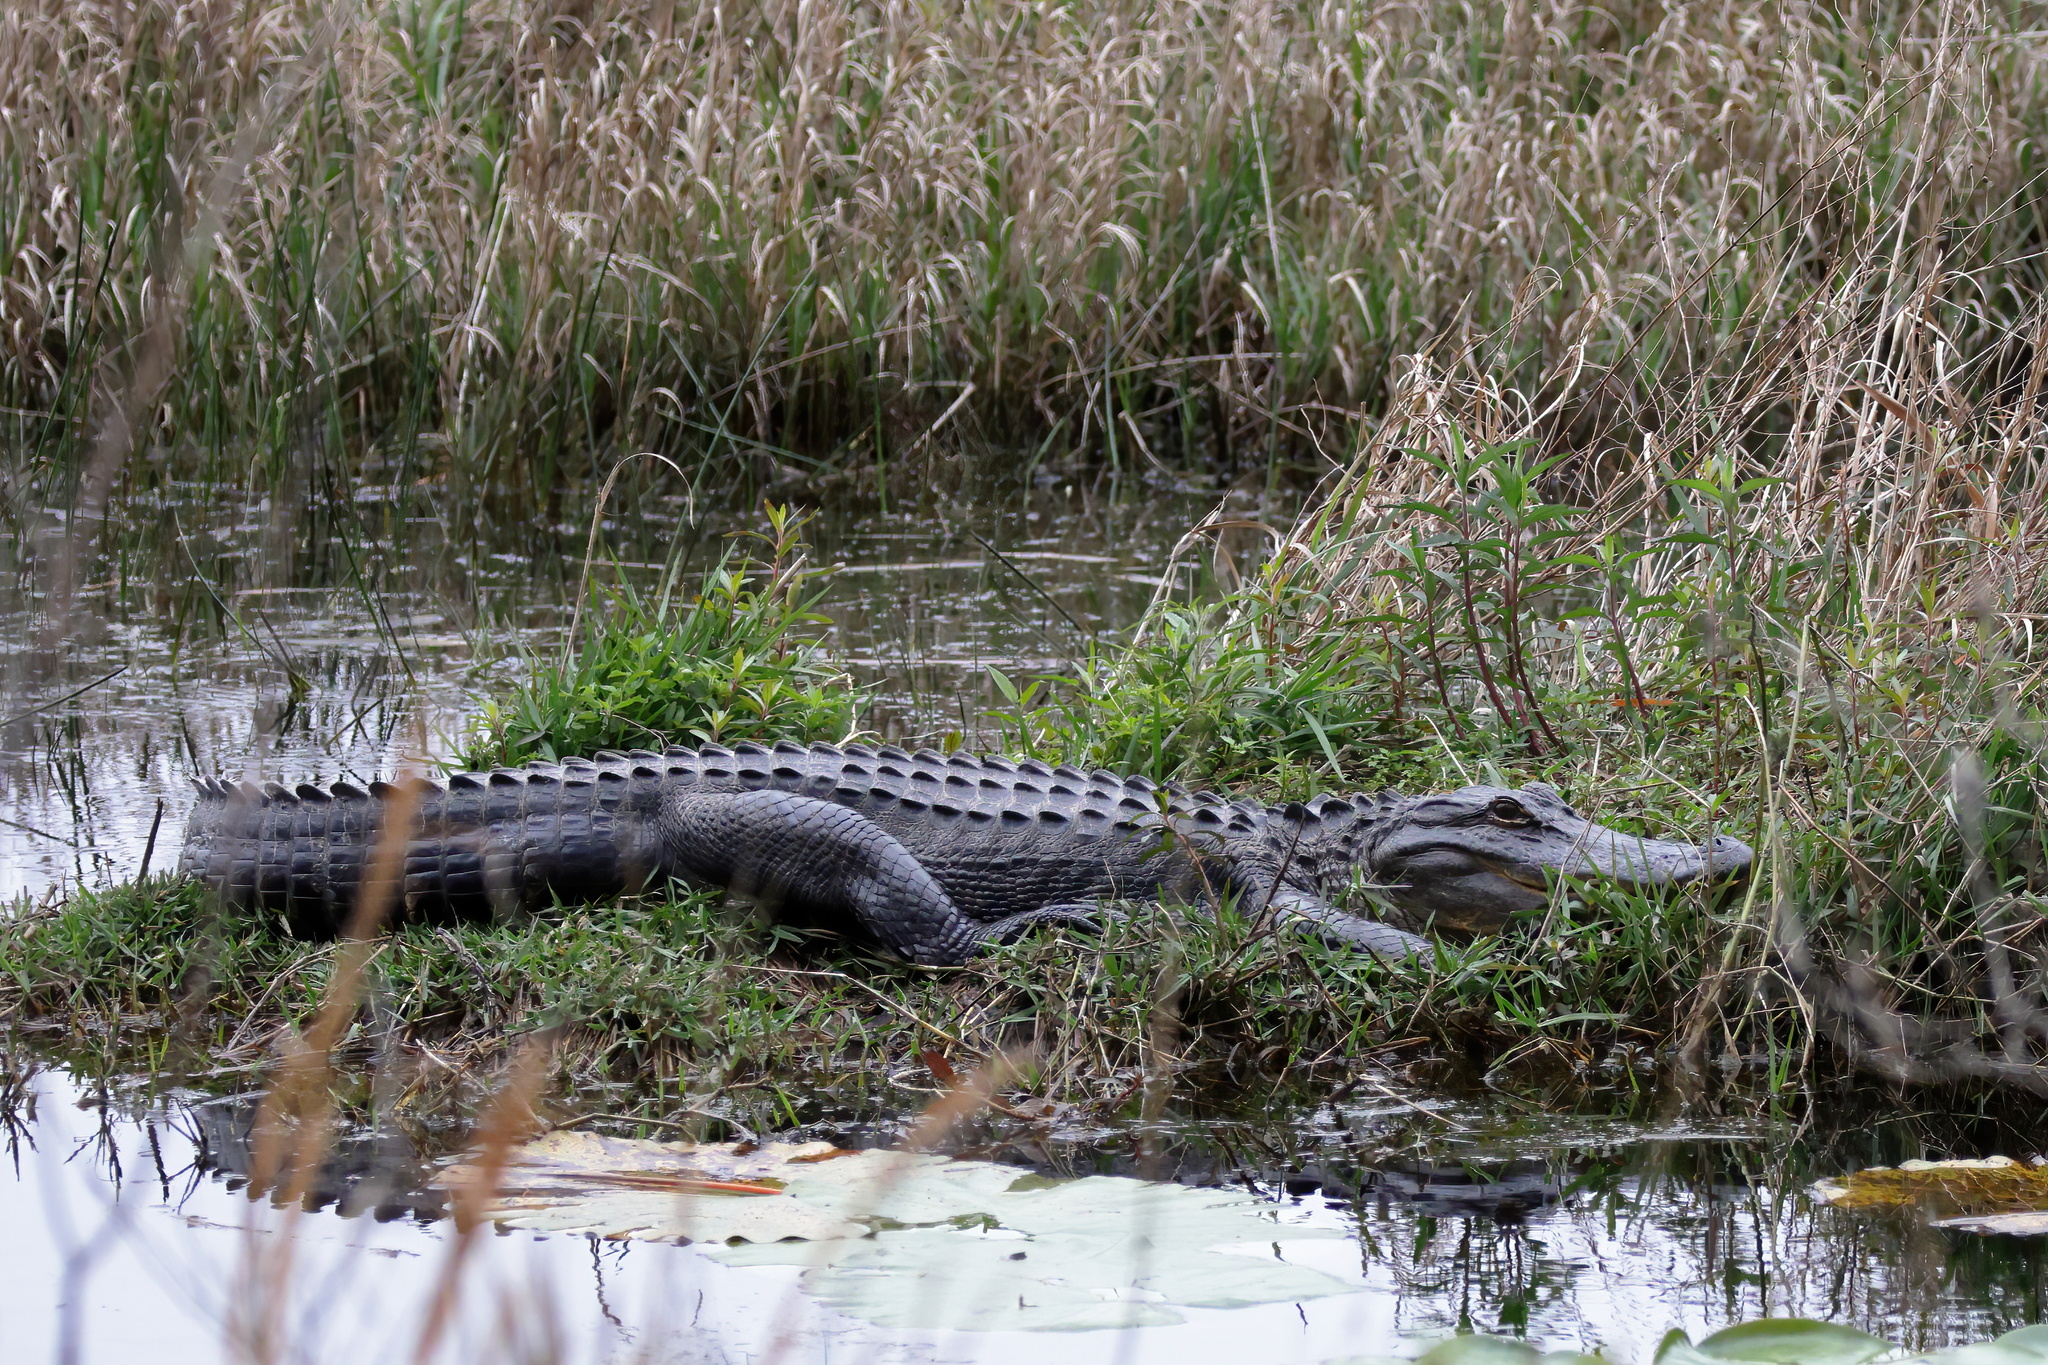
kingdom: Animalia
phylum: Chordata
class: Crocodylia
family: Alligatoridae
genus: Alligator
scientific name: Alligator mississippiensis
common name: American alligator
